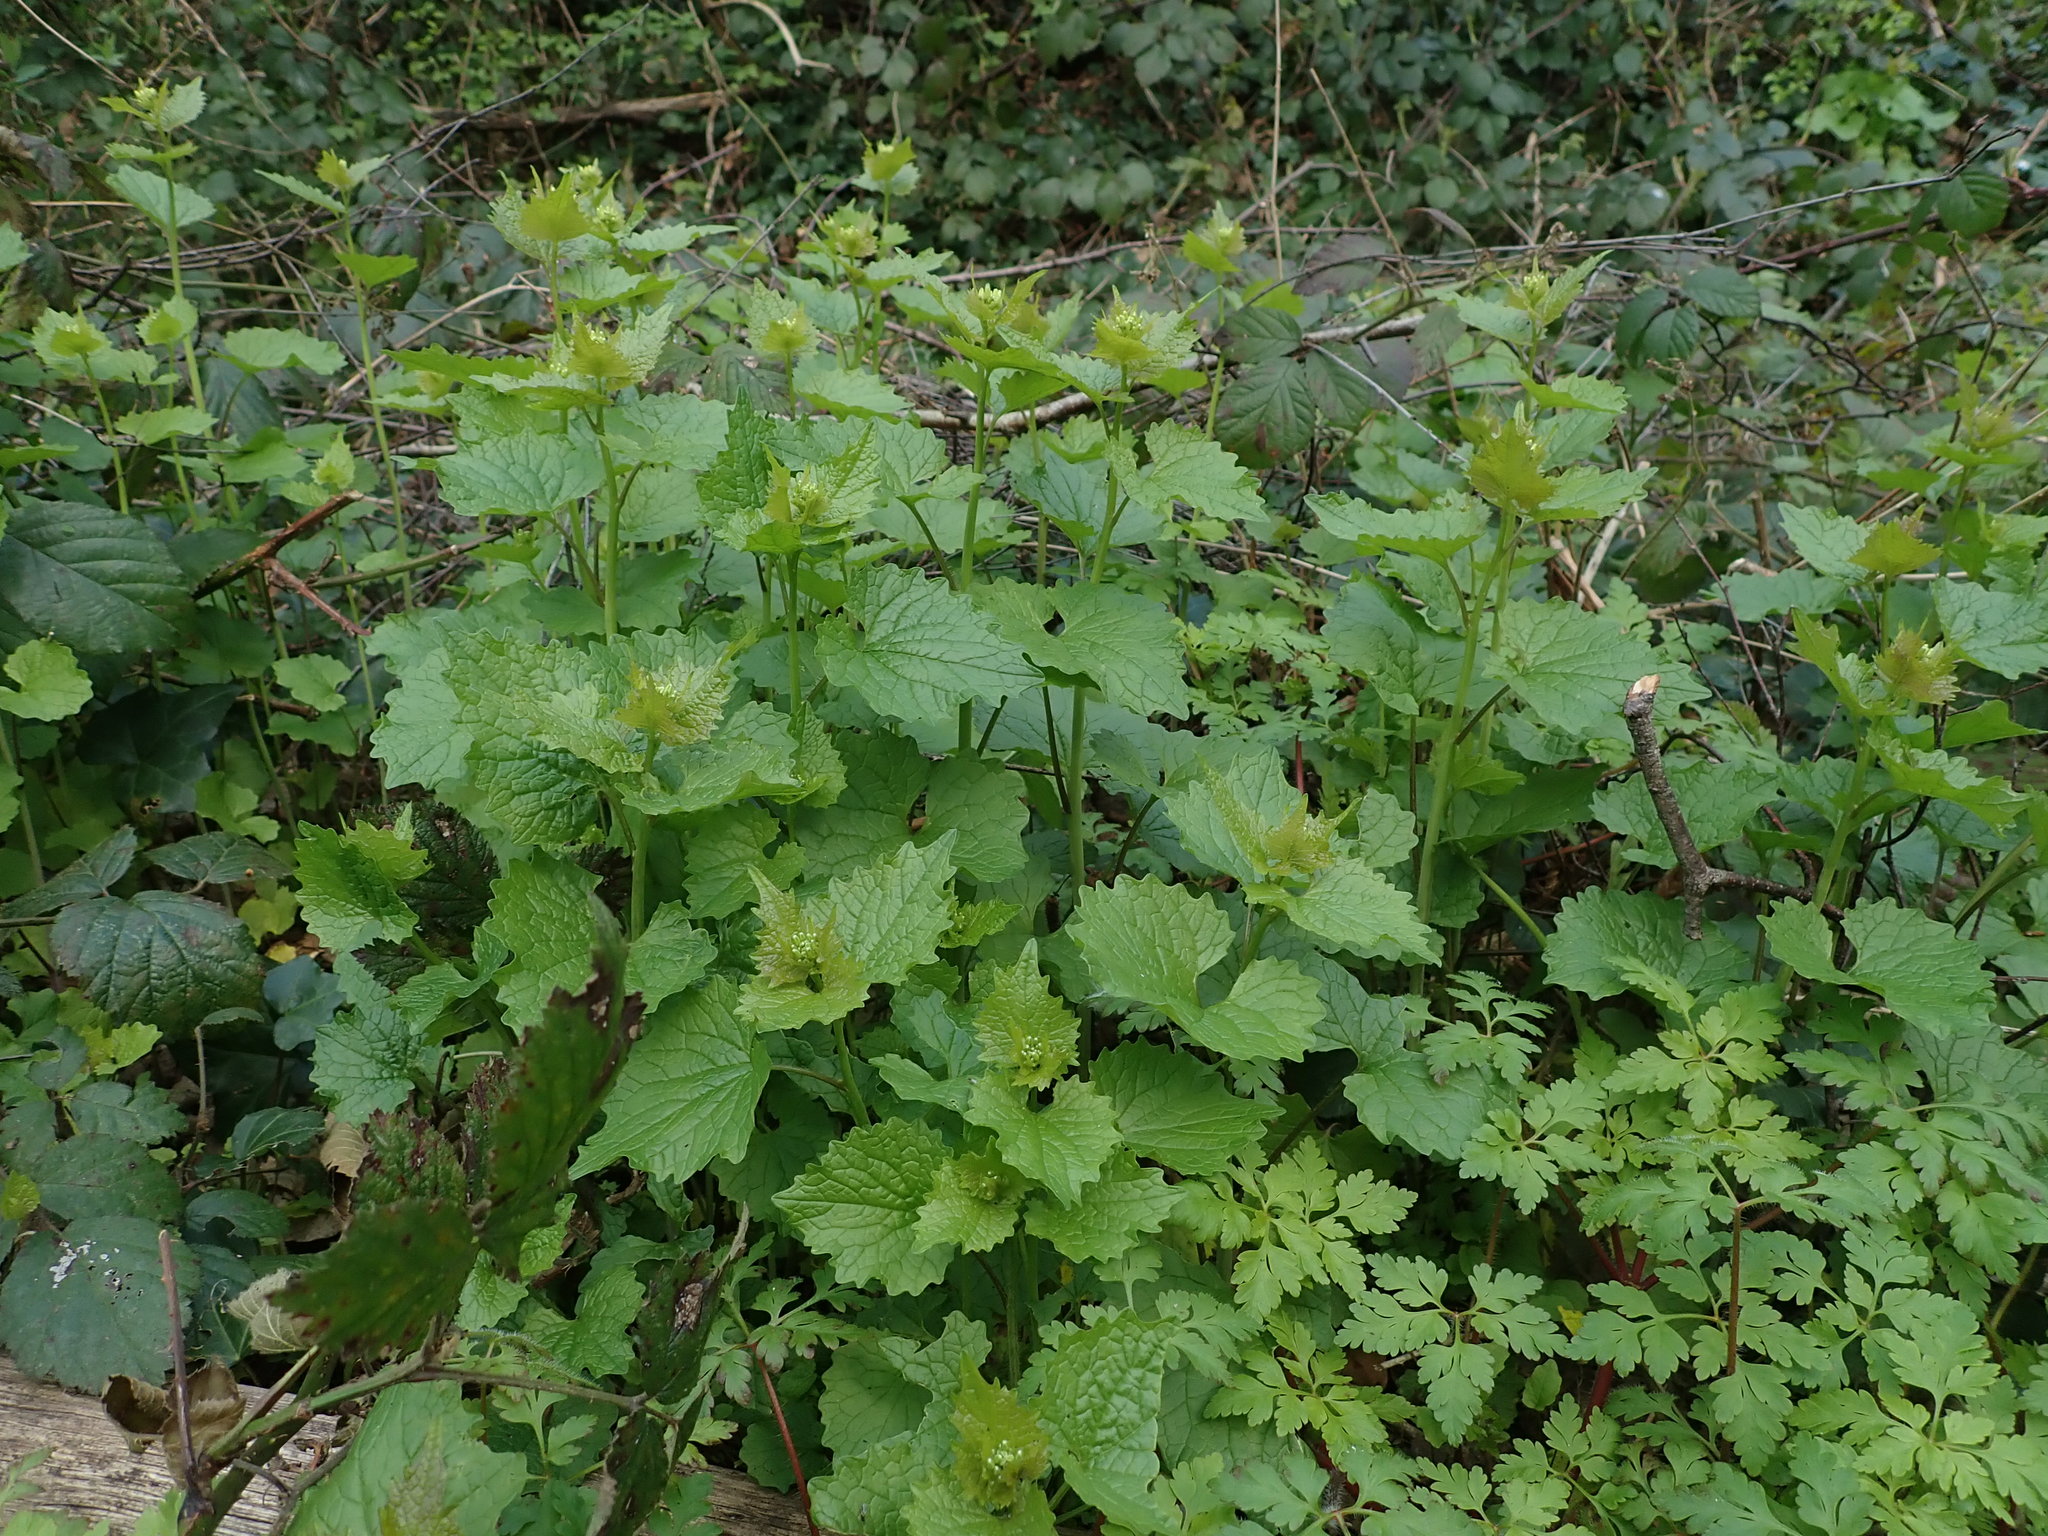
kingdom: Plantae
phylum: Tracheophyta
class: Magnoliopsida
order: Brassicales
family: Brassicaceae
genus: Alliaria
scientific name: Alliaria petiolata
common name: Garlic mustard
